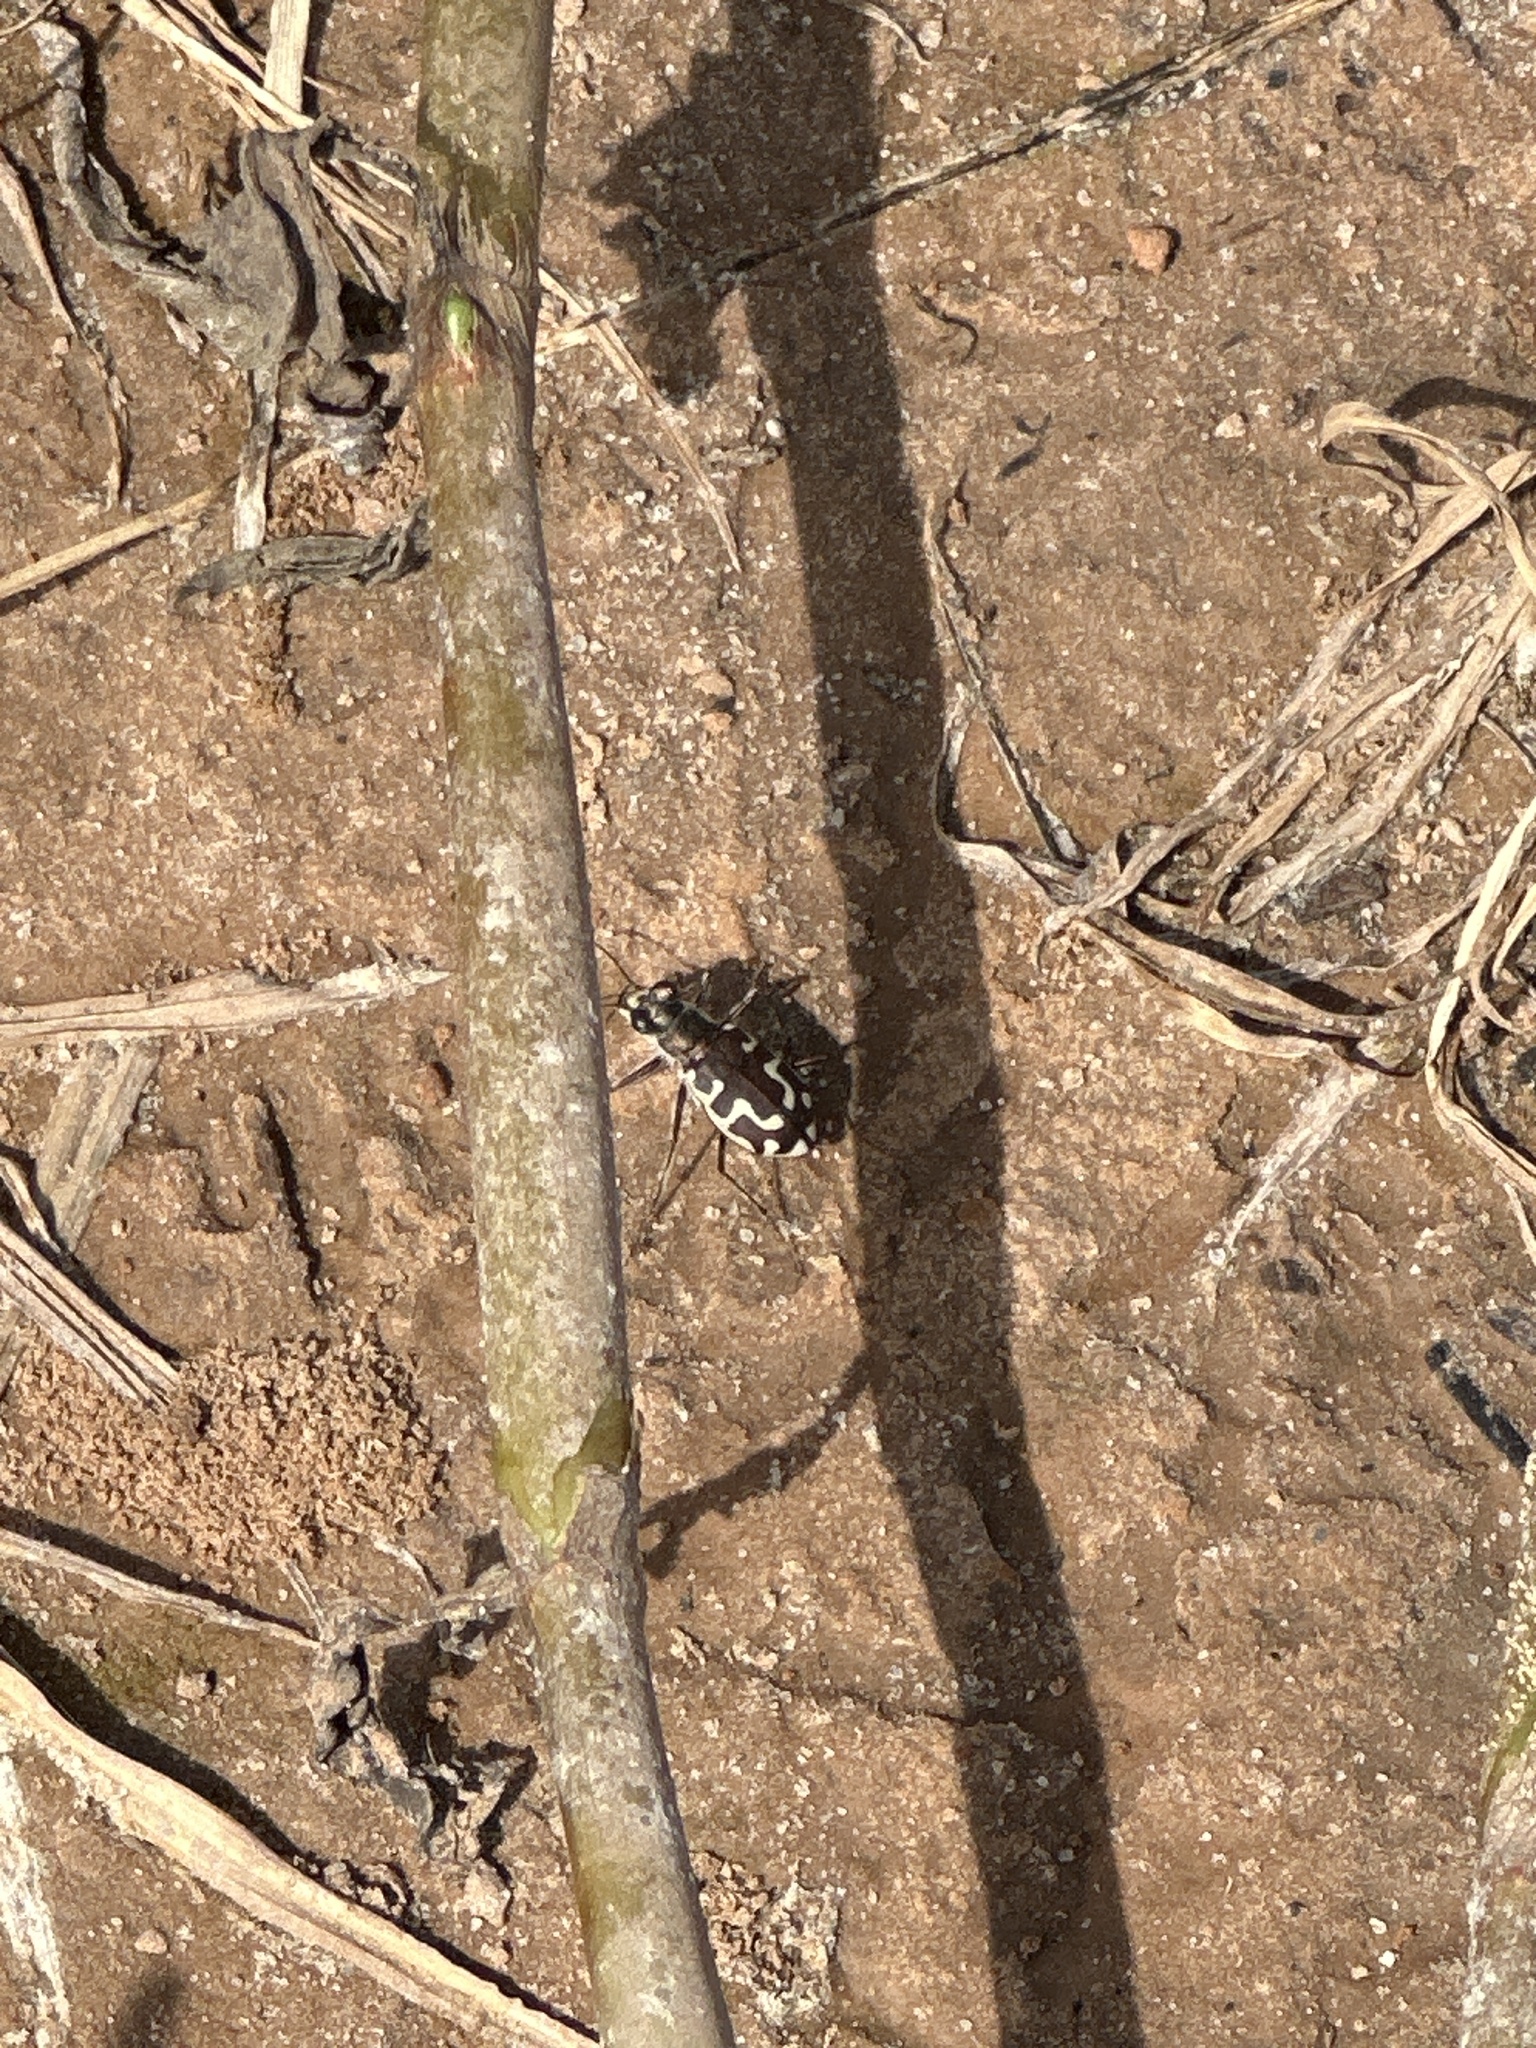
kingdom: Animalia
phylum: Arthropoda
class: Insecta
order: Coleoptera
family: Carabidae
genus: Cicindela
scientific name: Cicindela repanda
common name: Bronzed tiger beetle
